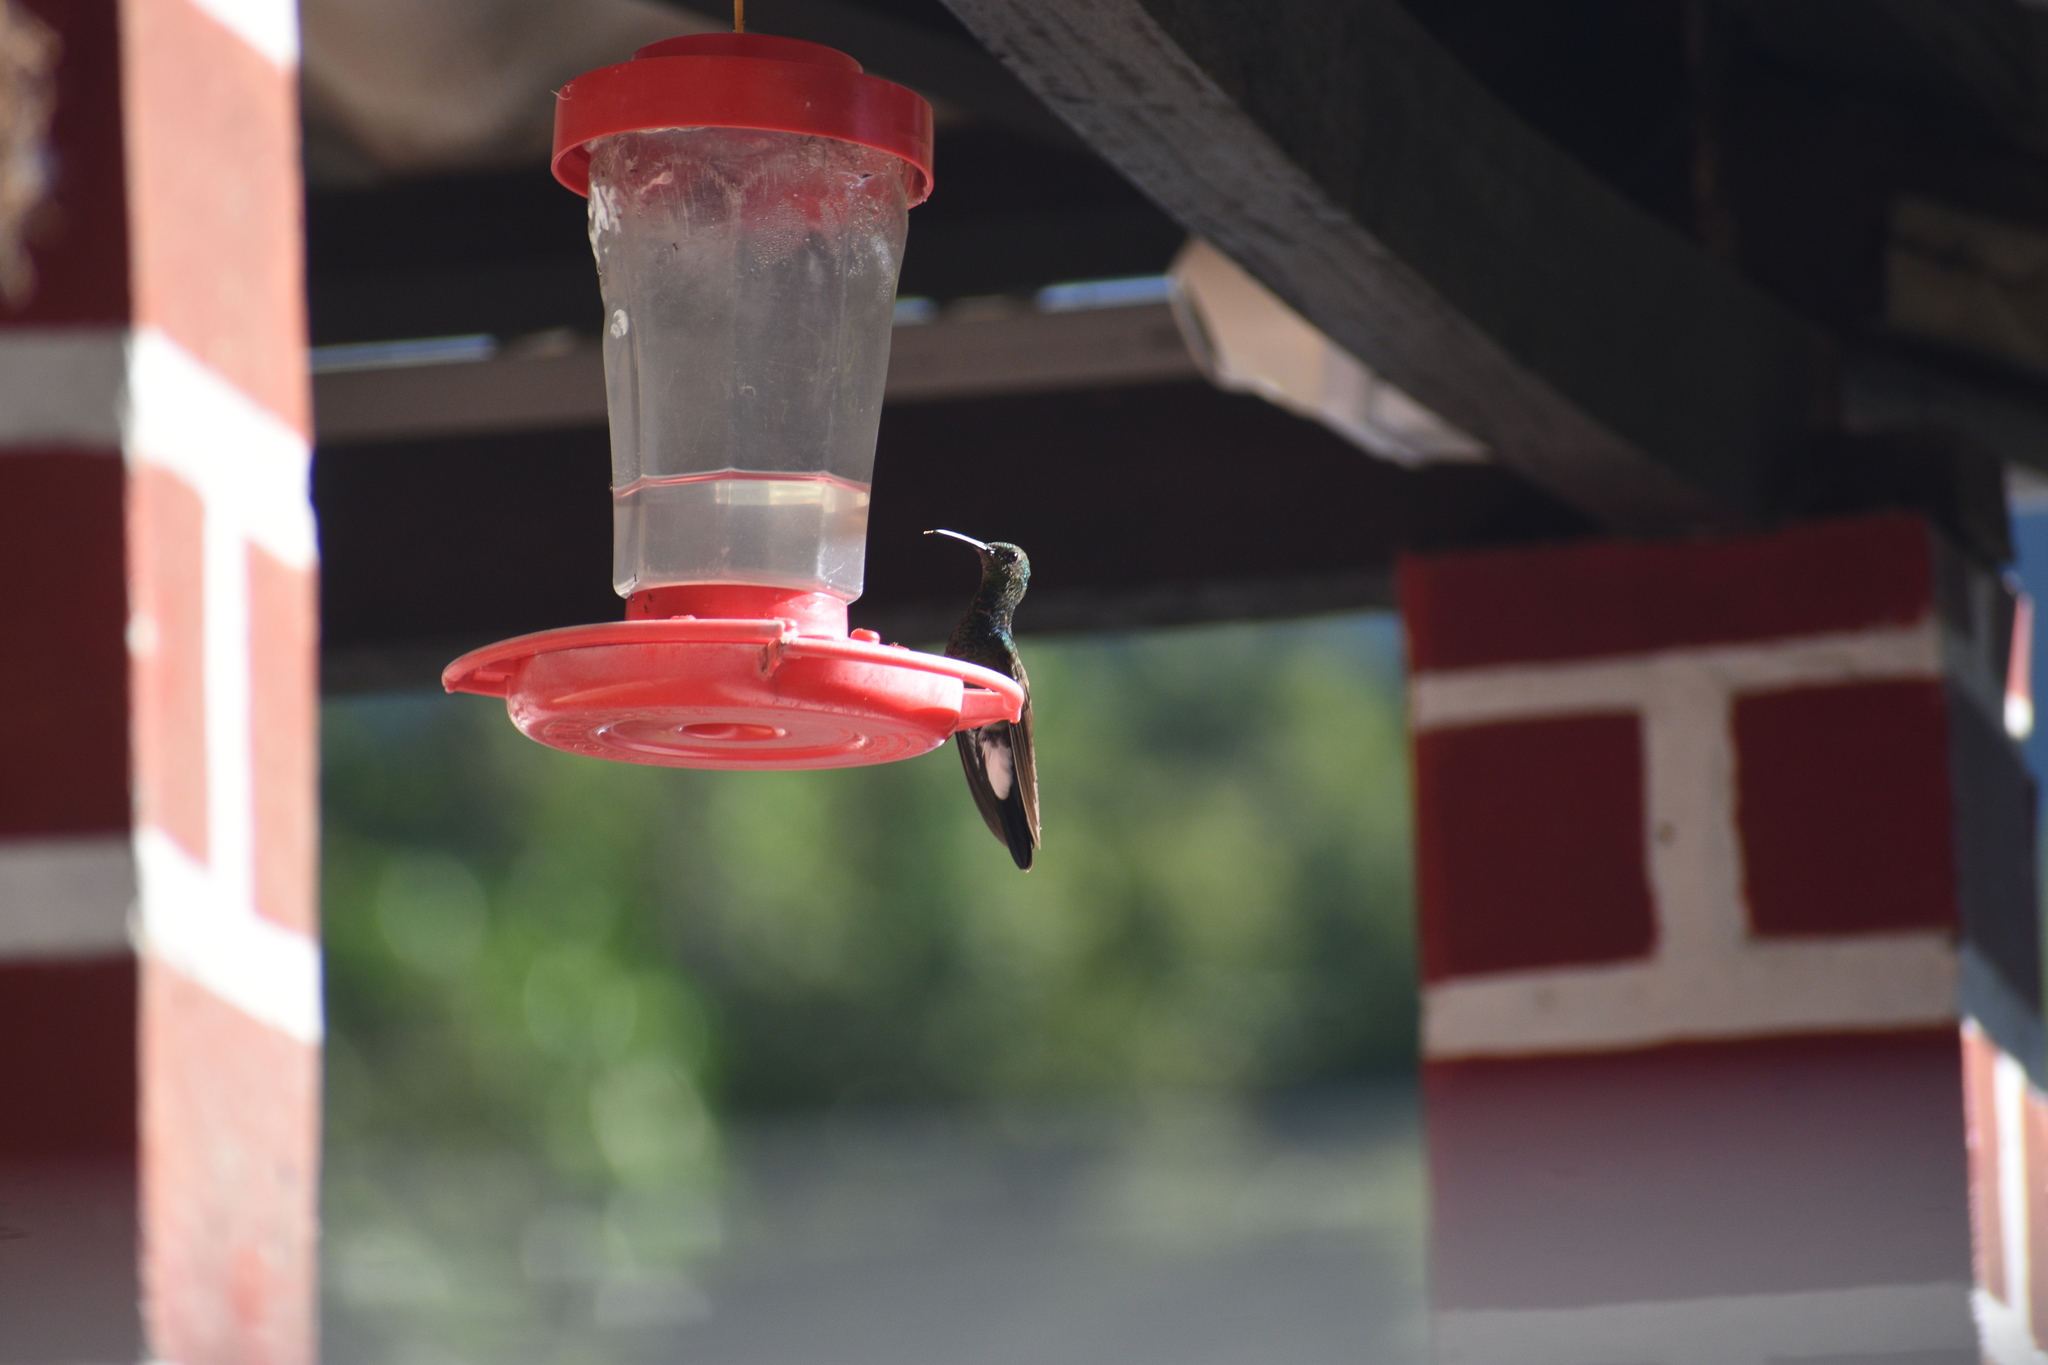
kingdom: Animalia
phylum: Chordata
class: Aves
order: Apodiformes
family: Trochilidae
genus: Chalybura
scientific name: Chalybura buffonii
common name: White-vented plumeleteer
